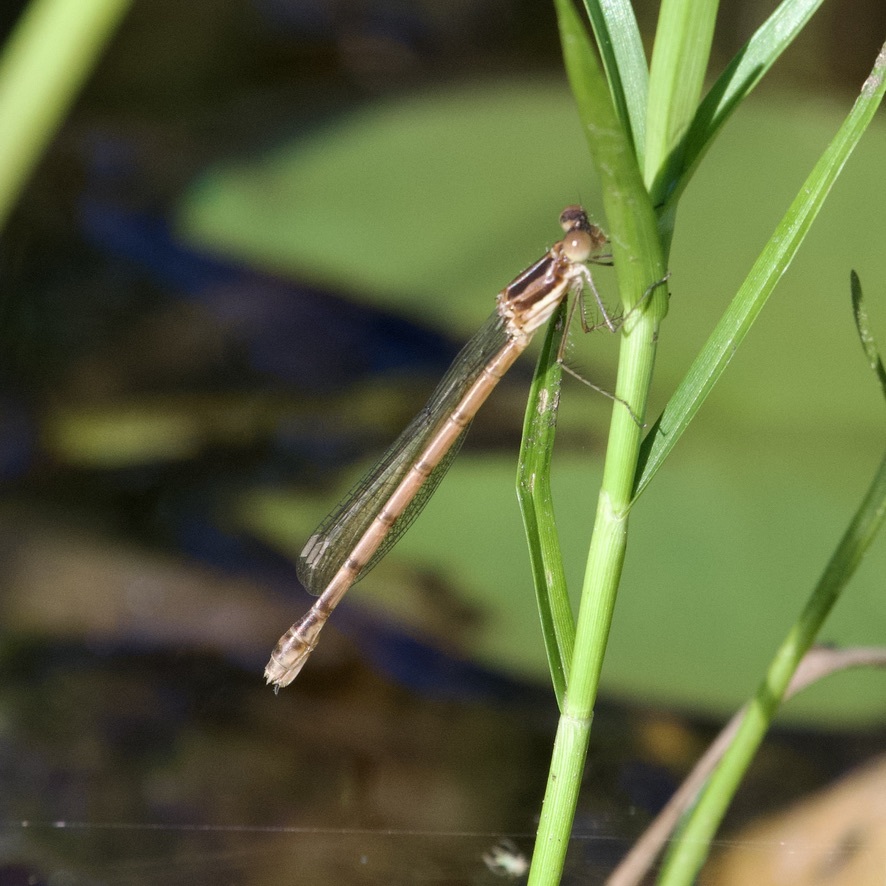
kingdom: Animalia
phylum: Arthropoda
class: Insecta
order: Odonata
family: Lestidae
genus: Lestes
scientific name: Lestes forcipatus
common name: Sweetflag spreadwing
